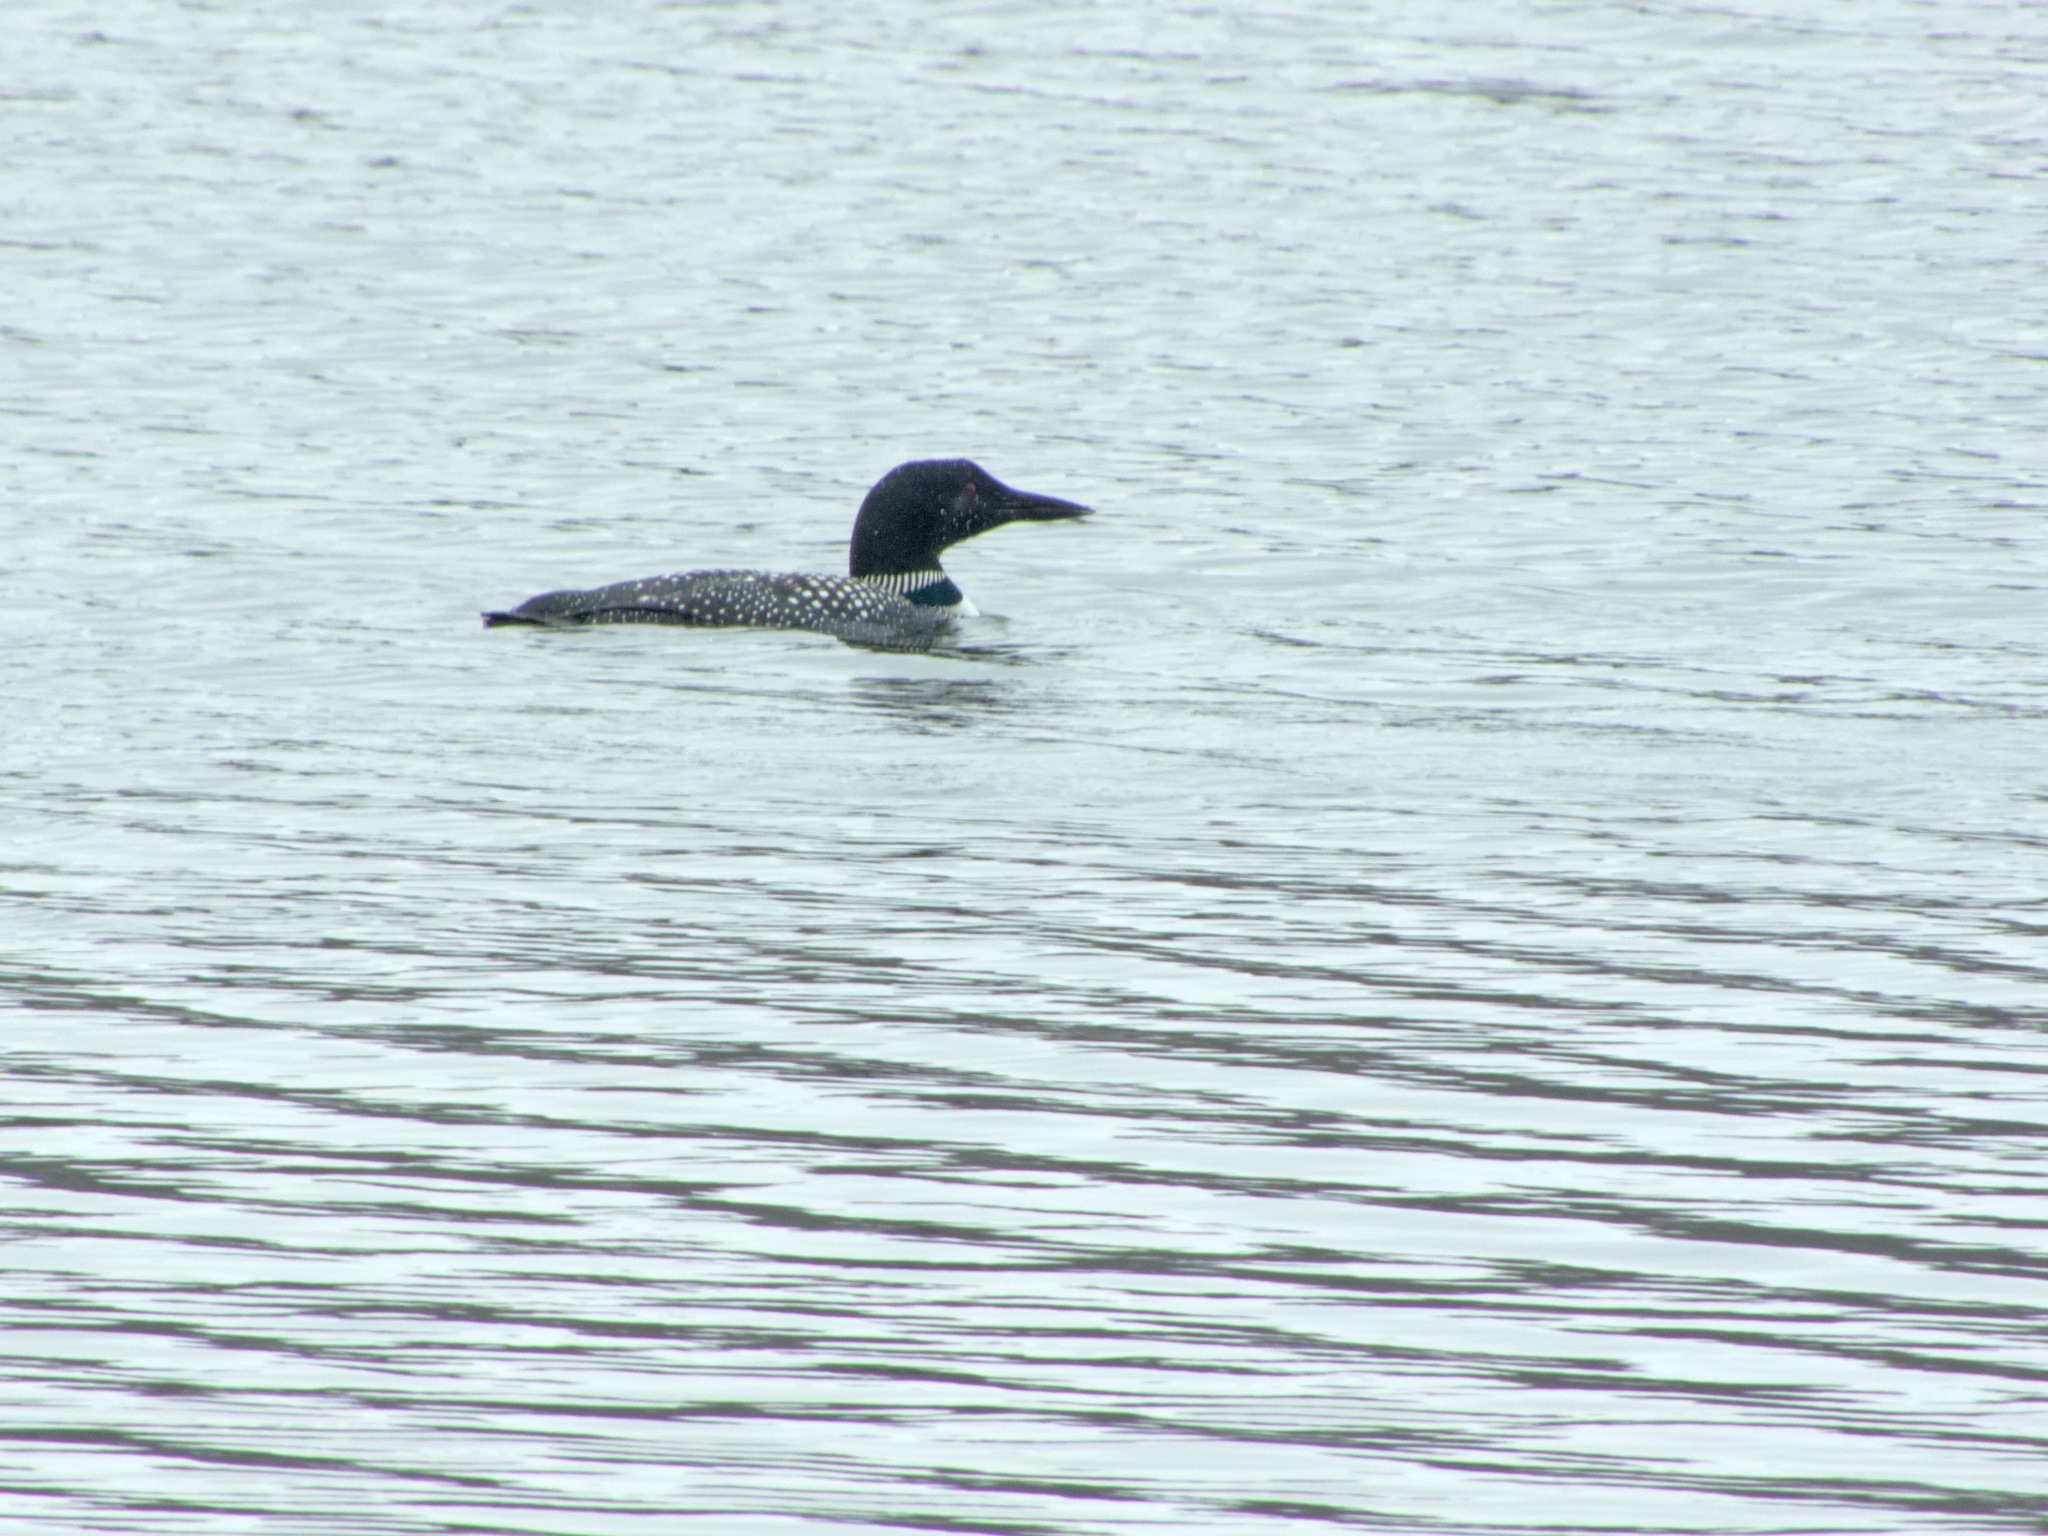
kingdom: Animalia
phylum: Chordata
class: Aves
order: Gaviiformes
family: Gaviidae
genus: Gavia
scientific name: Gavia immer
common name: Common loon
